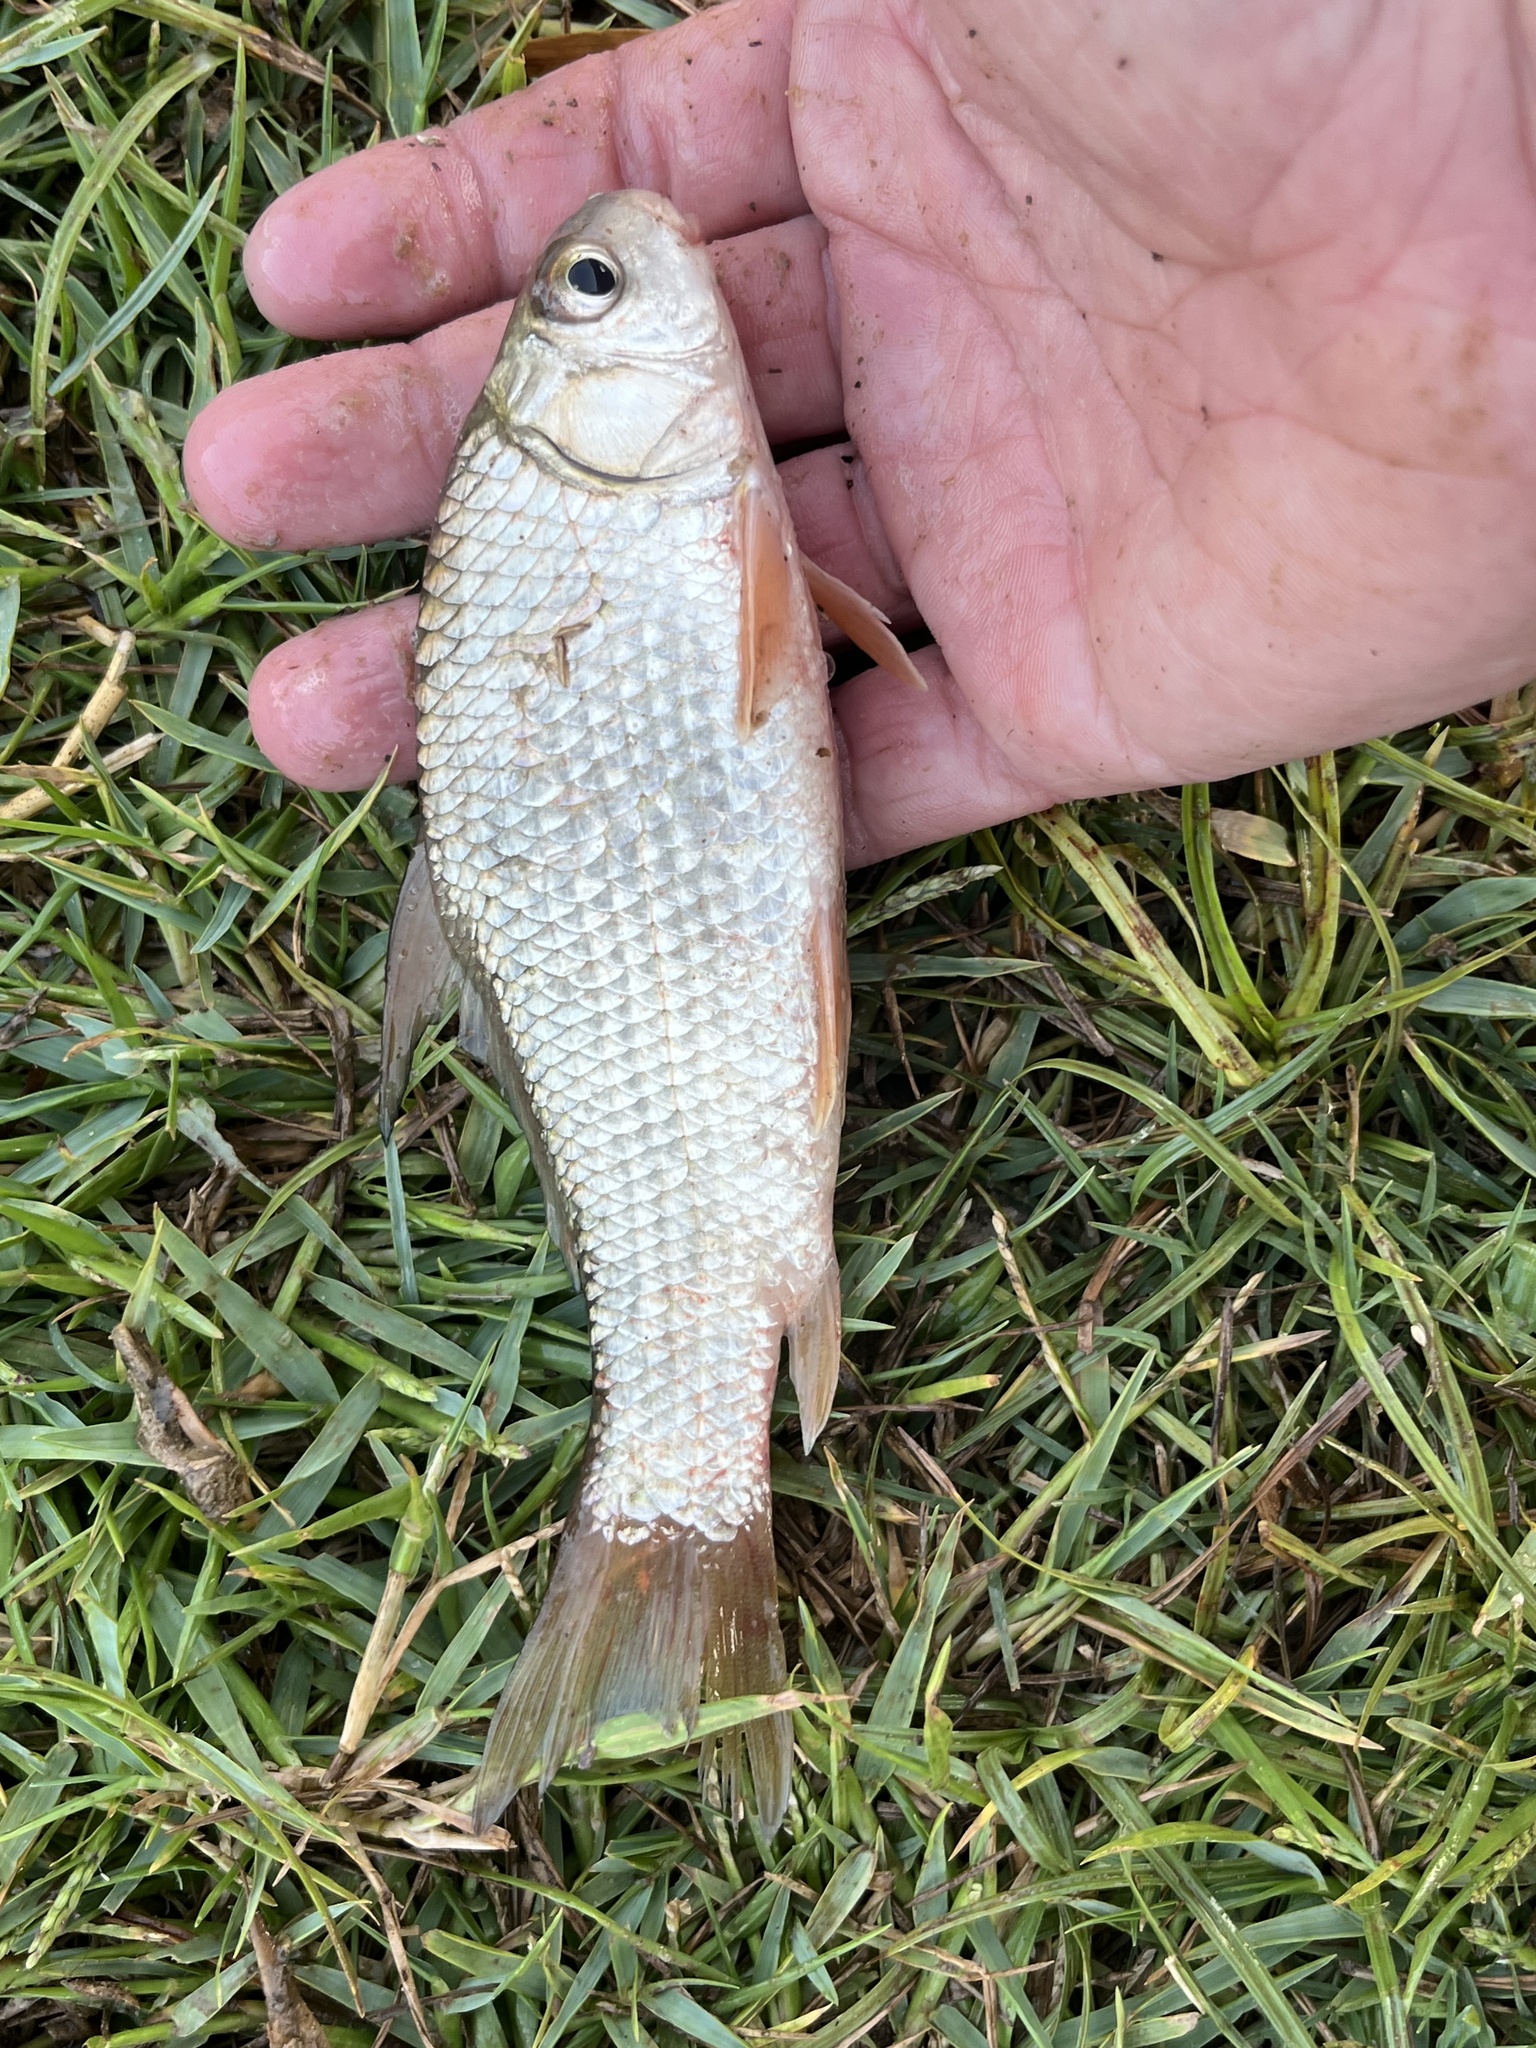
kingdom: Animalia
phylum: Chordata
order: Cypriniformes
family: Catostomidae
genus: Carpiodes
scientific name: Carpiodes carpio
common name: River carpsucker
